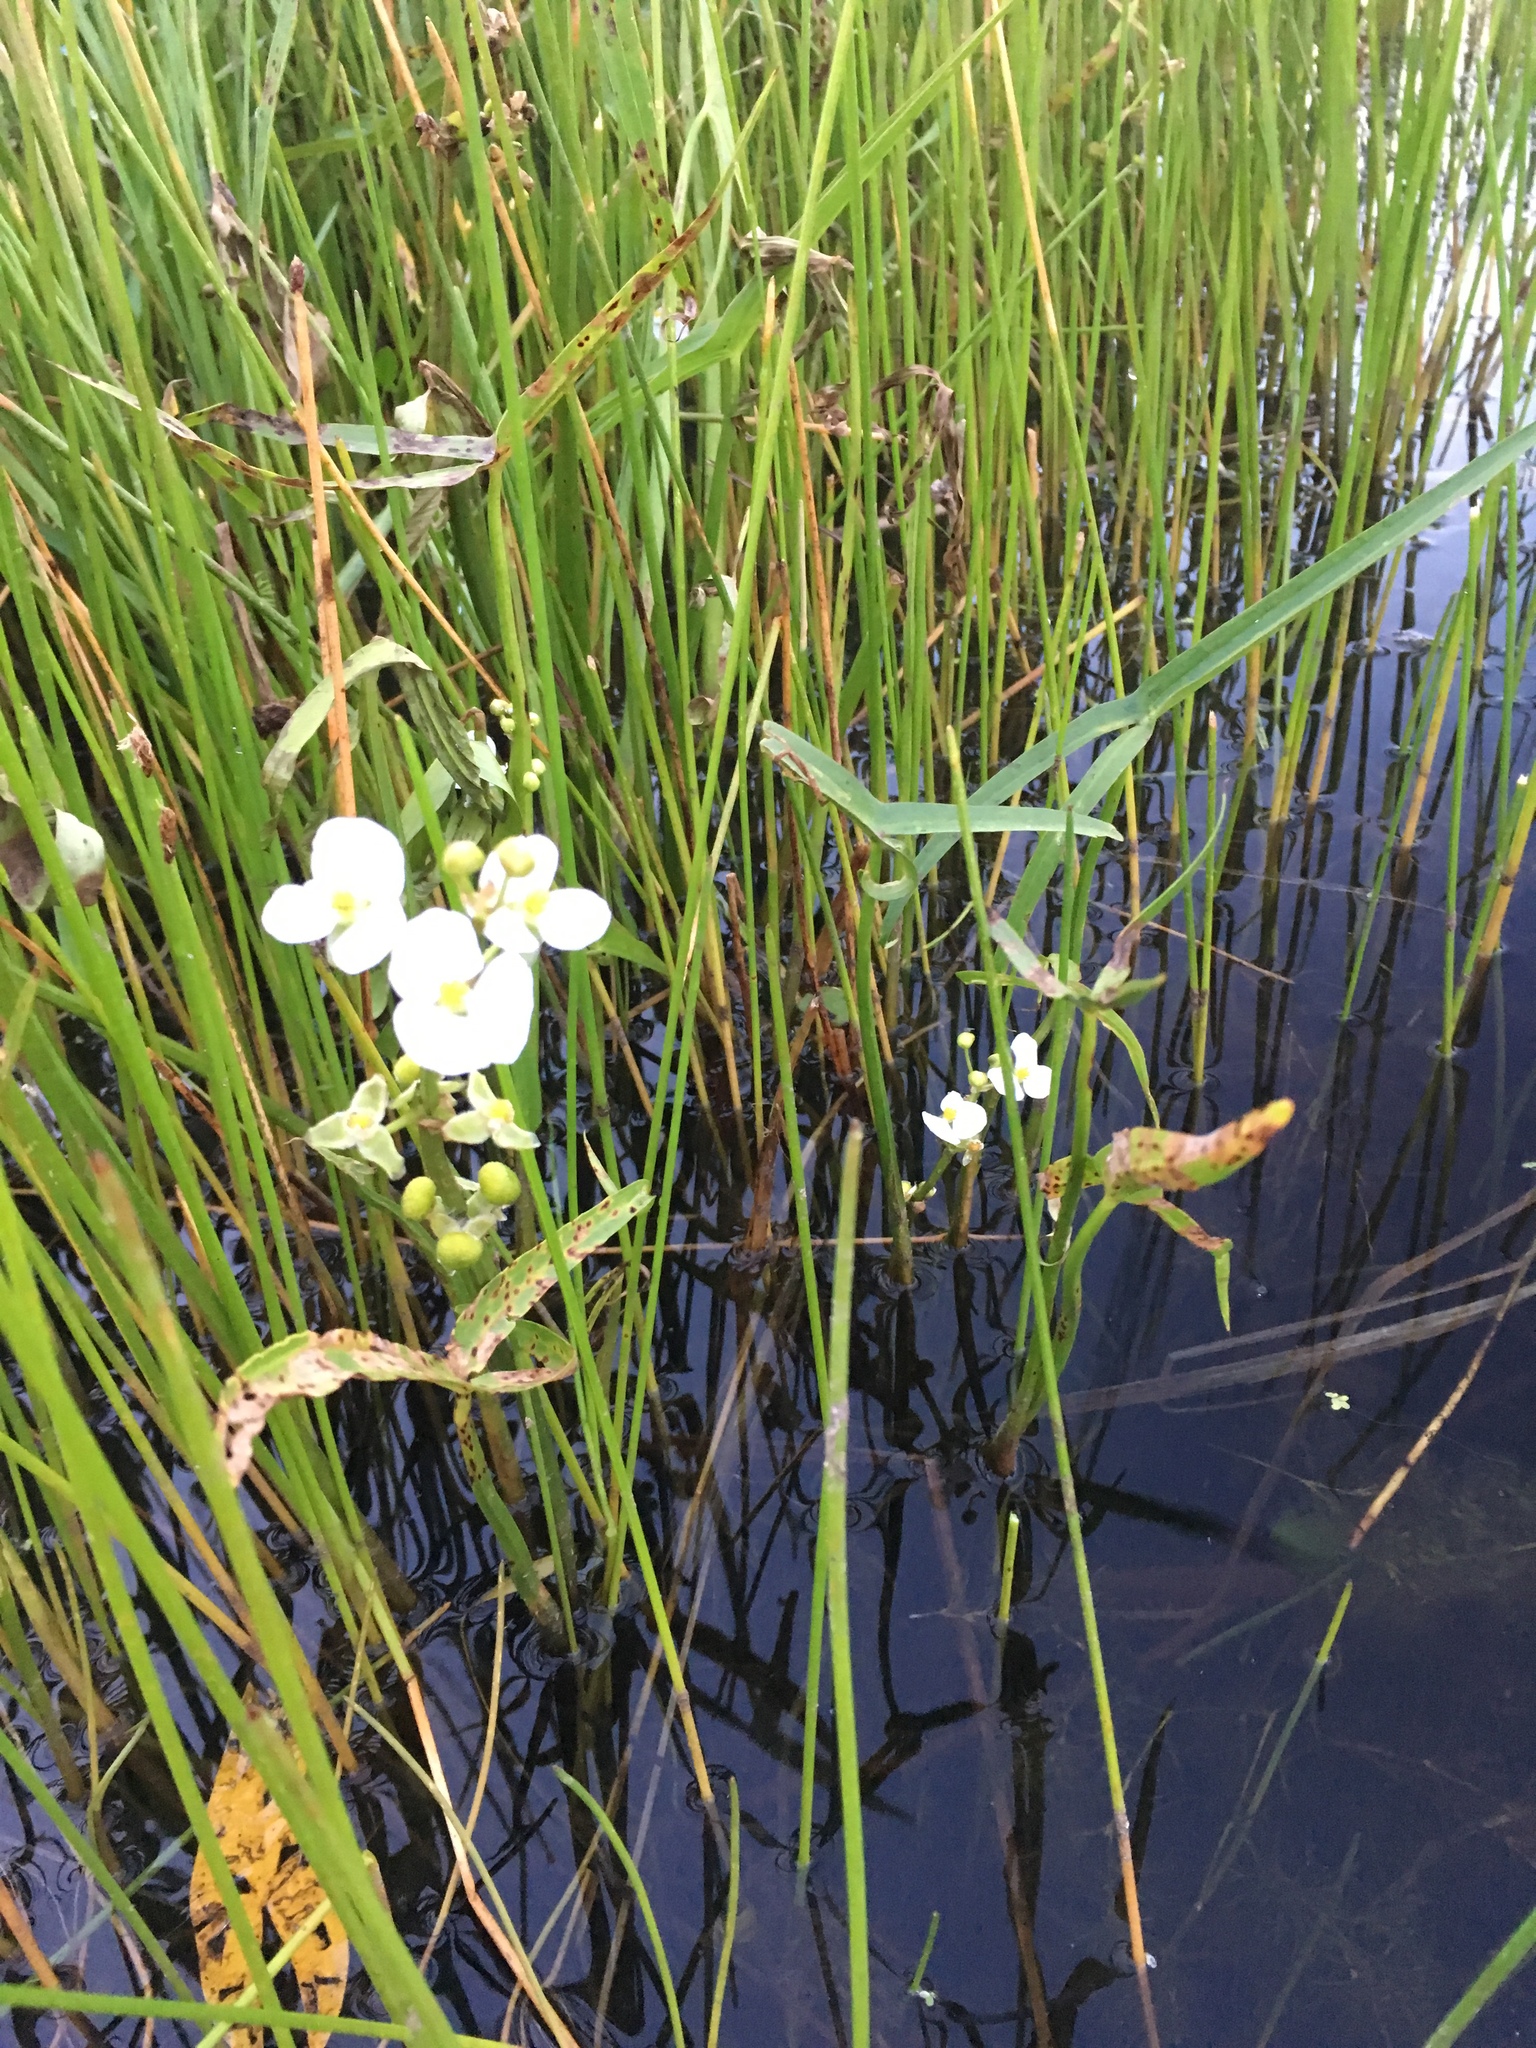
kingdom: Plantae
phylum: Tracheophyta
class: Liliopsida
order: Alismatales
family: Alismataceae
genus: Sagittaria
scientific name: Sagittaria latifolia
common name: Duck-potato
